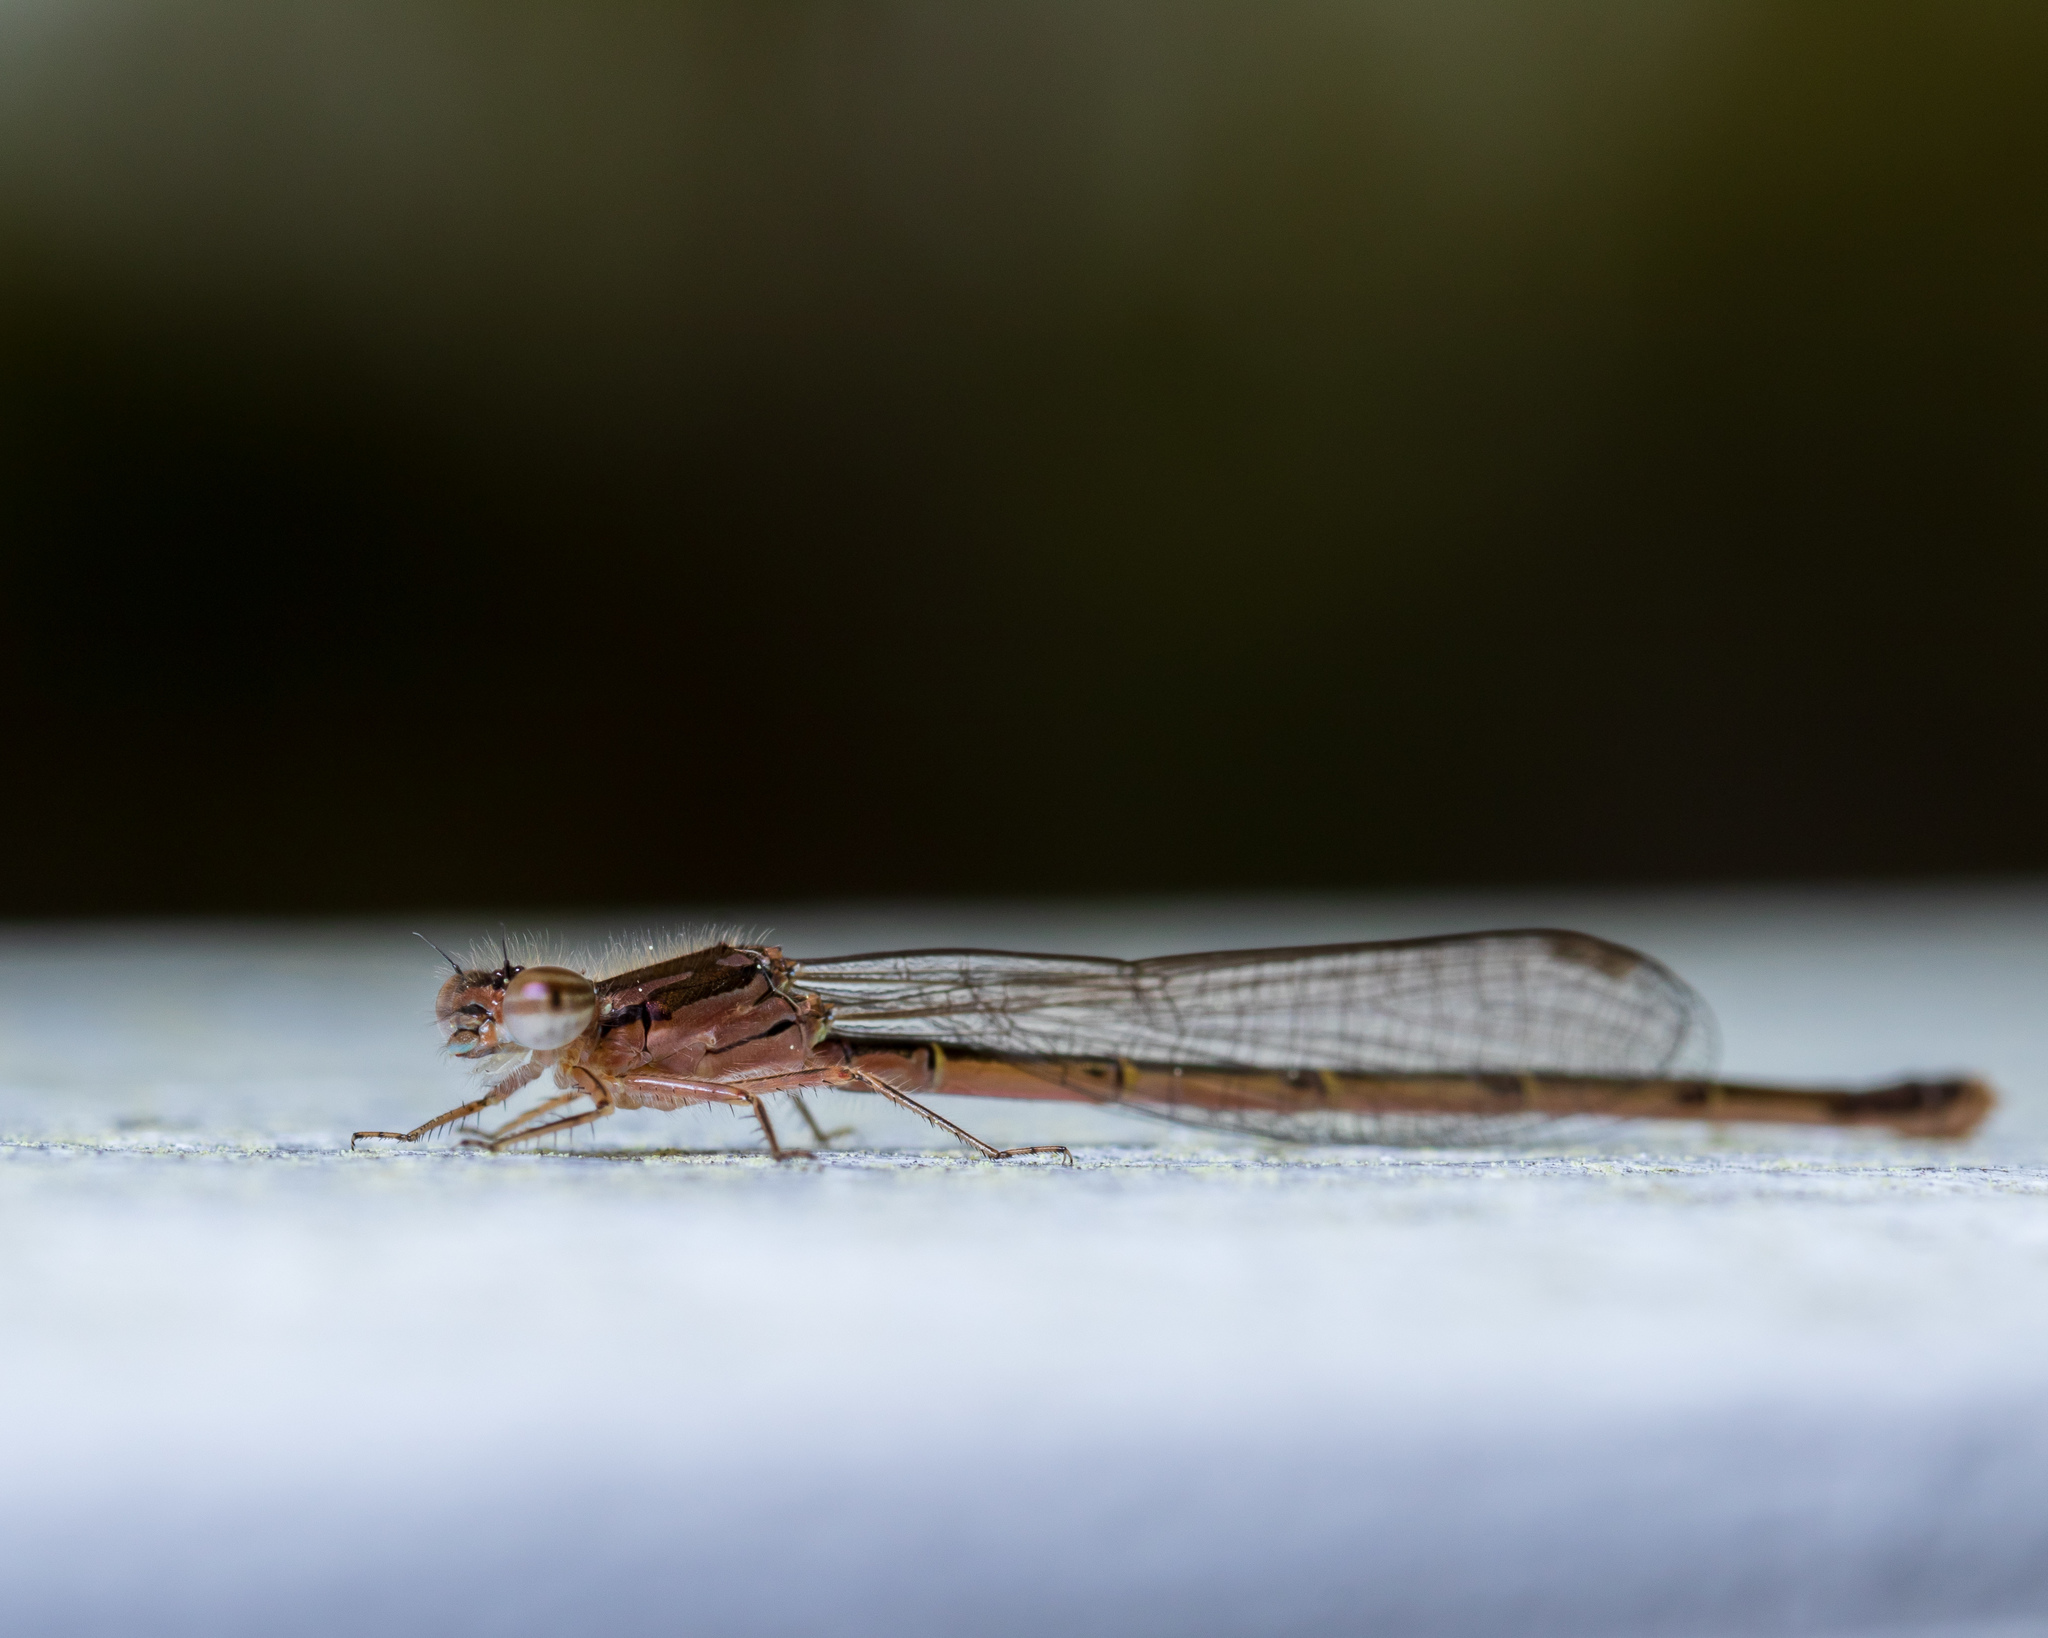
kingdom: Animalia
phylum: Arthropoda
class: Insecta
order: Odonata
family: Coenagrionidae
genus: Ischnura
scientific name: Ischnura posita
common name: Fragile forktail
